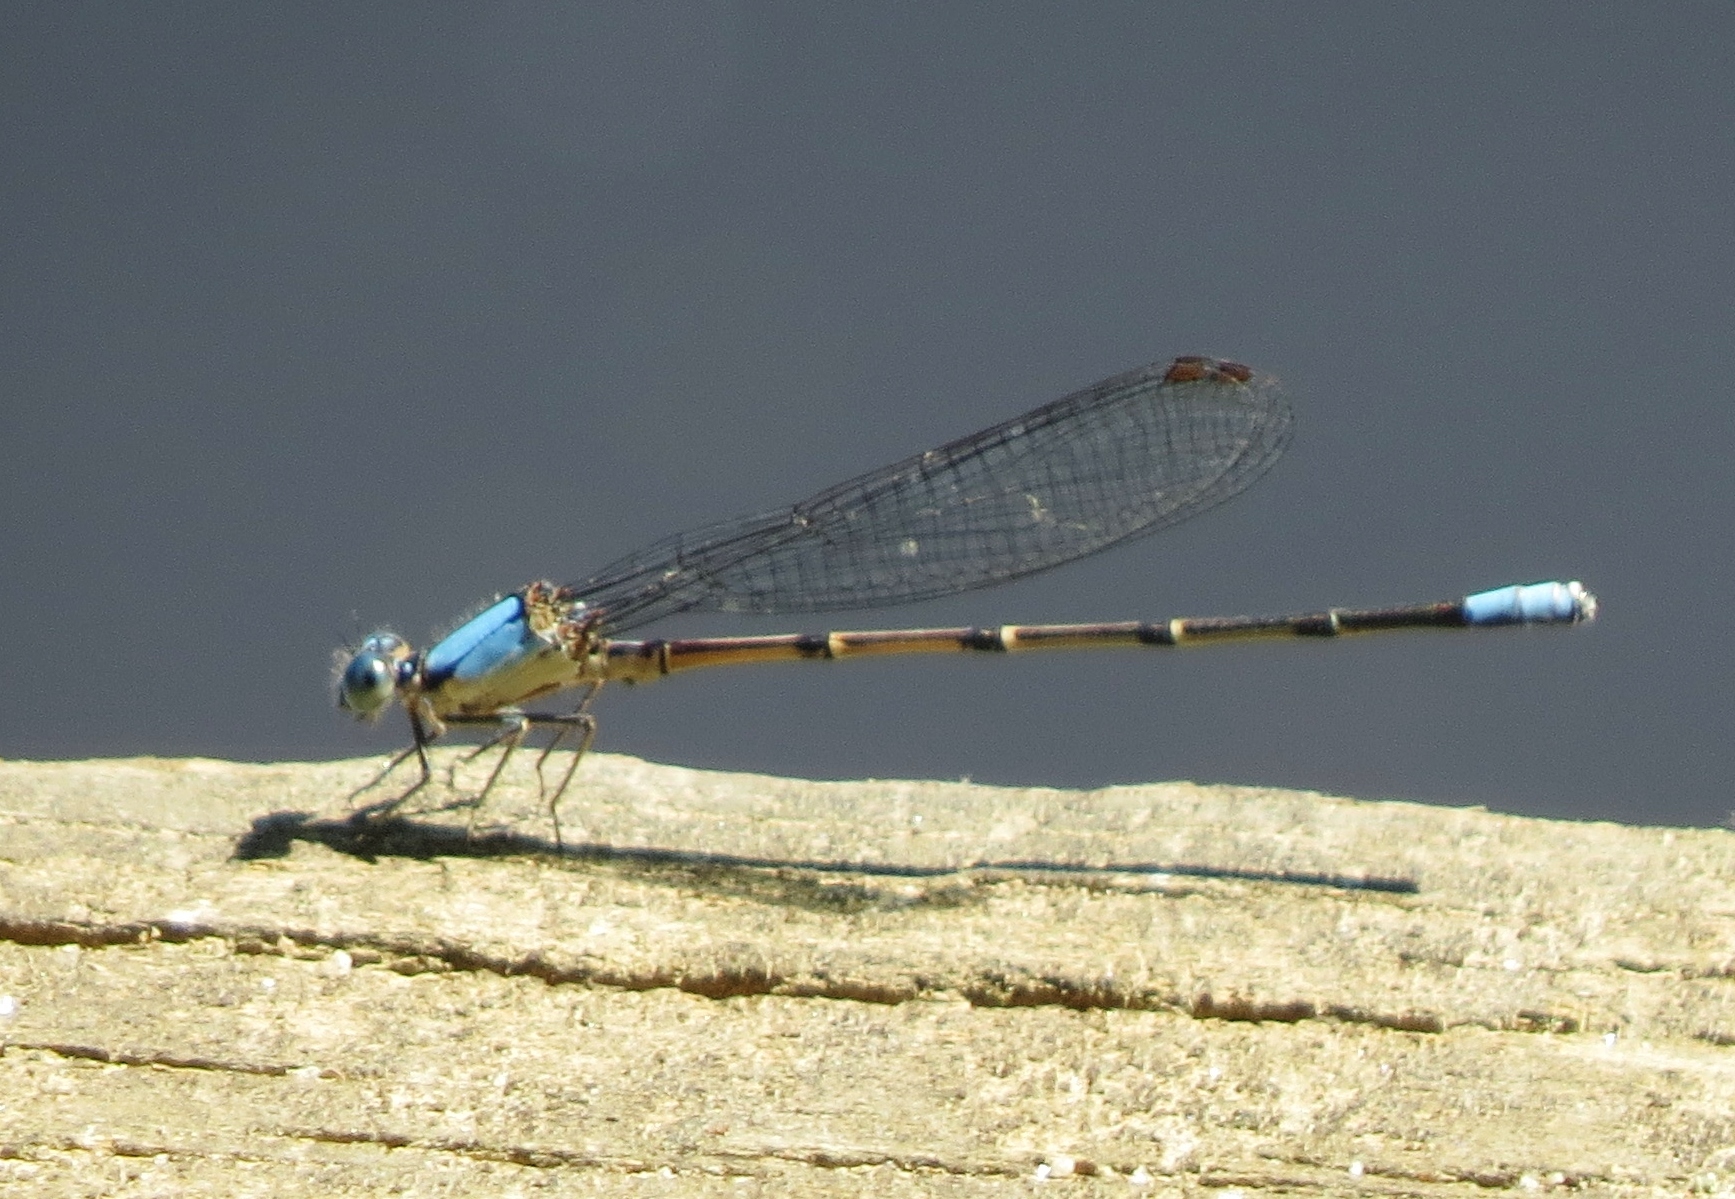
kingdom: Animalia
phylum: Arthropoda
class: Insecta
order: Odonata
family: Coenagrionidae
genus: Argia
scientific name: Argia apicalis
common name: Blue-fronted dancer
